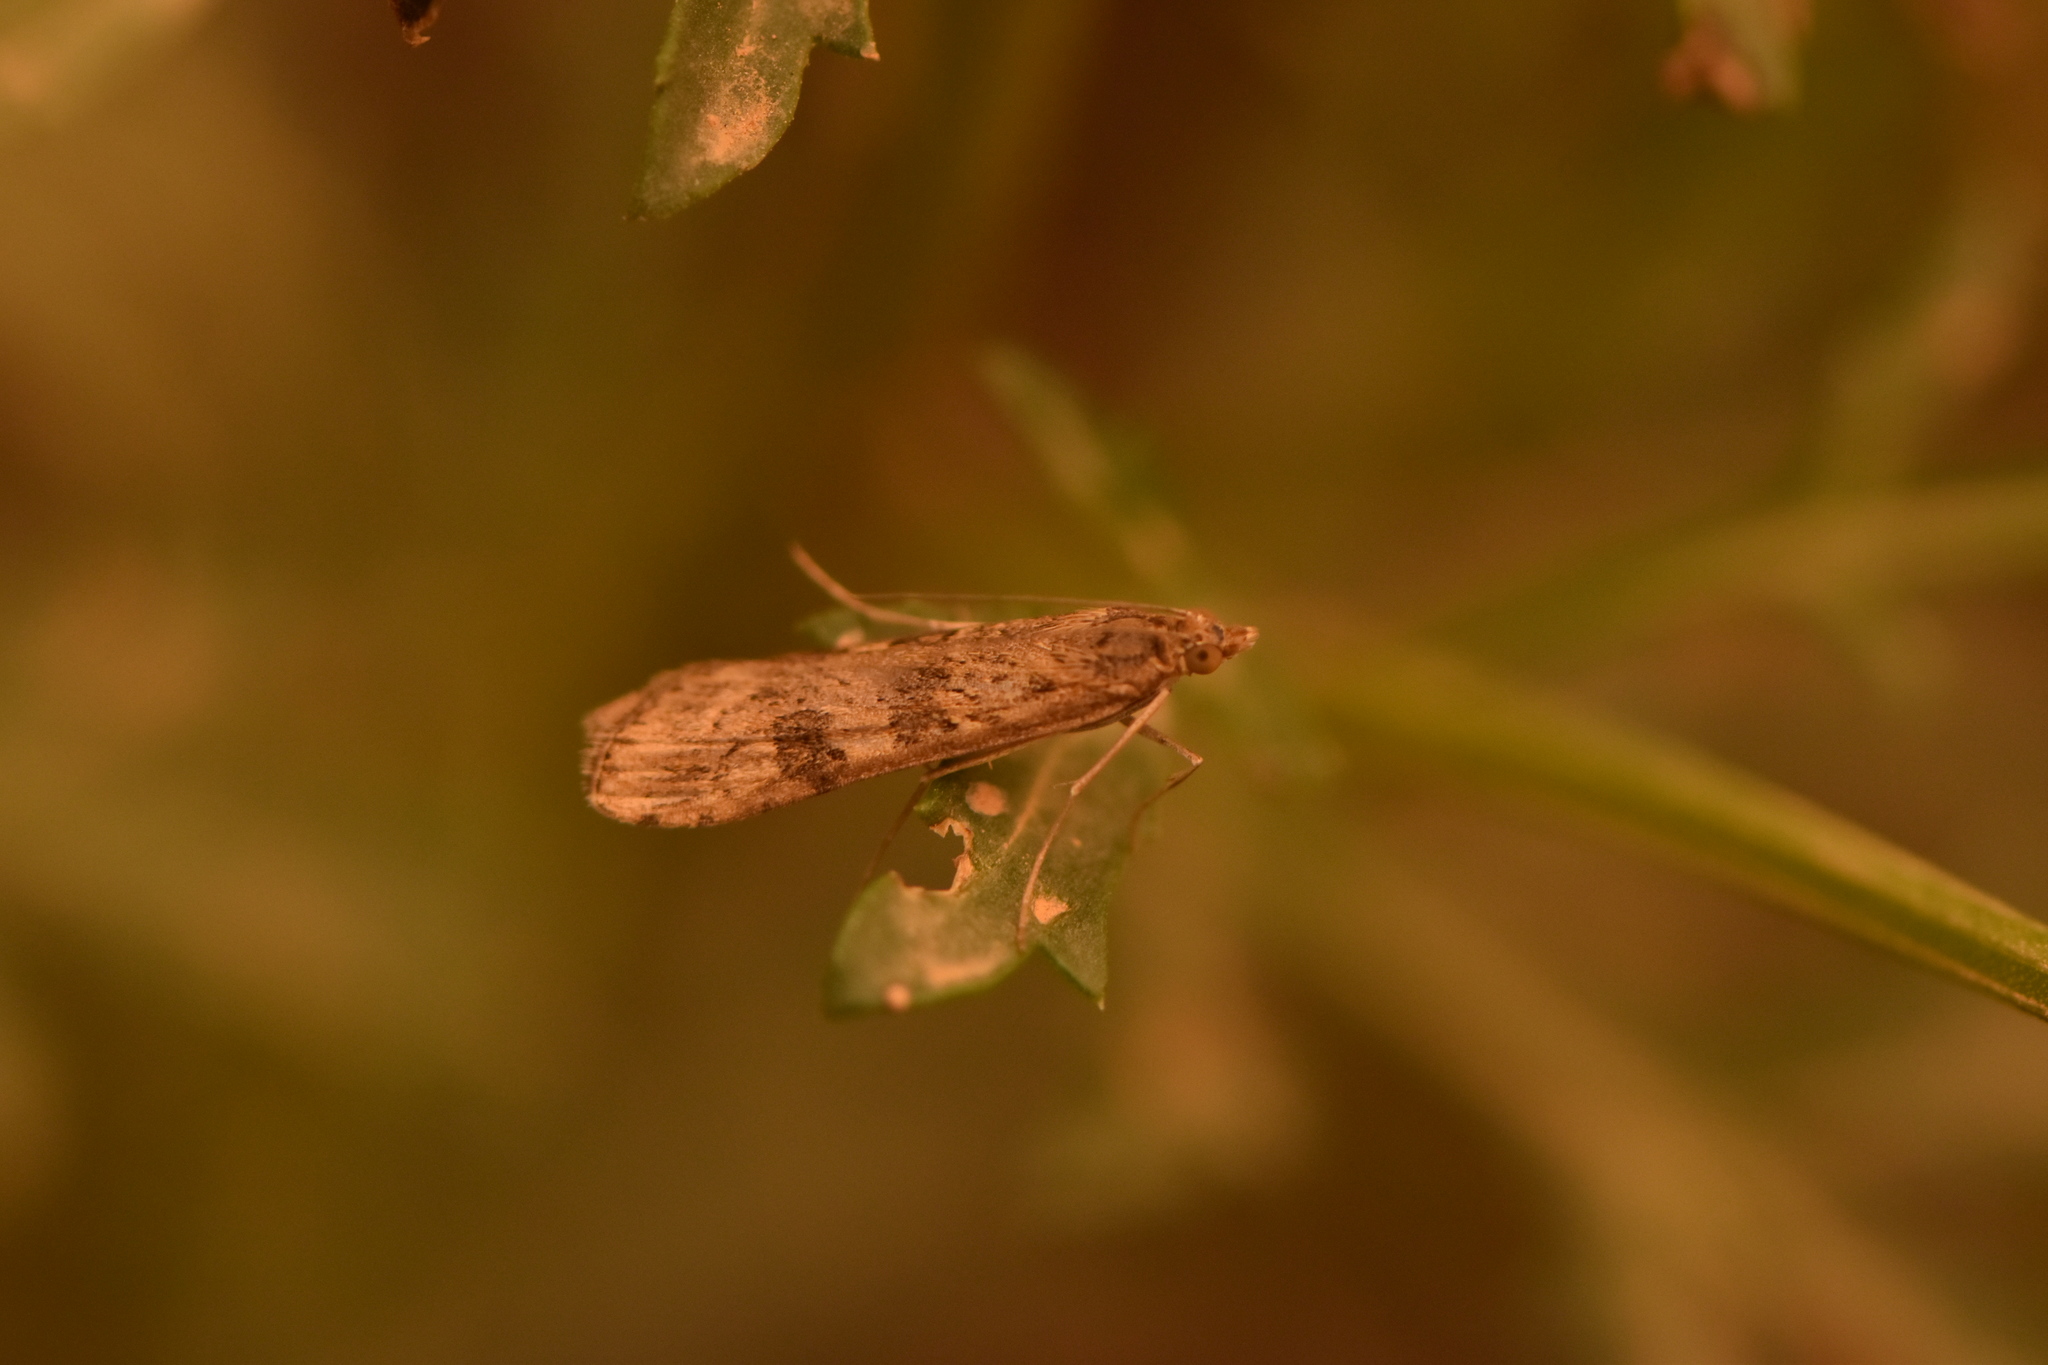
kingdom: Animalia
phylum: Arthropoda
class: Insecta
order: Lepidoptera
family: Crambidae
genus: Nomophila
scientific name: Nomophila noctuella
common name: Rush veneer
